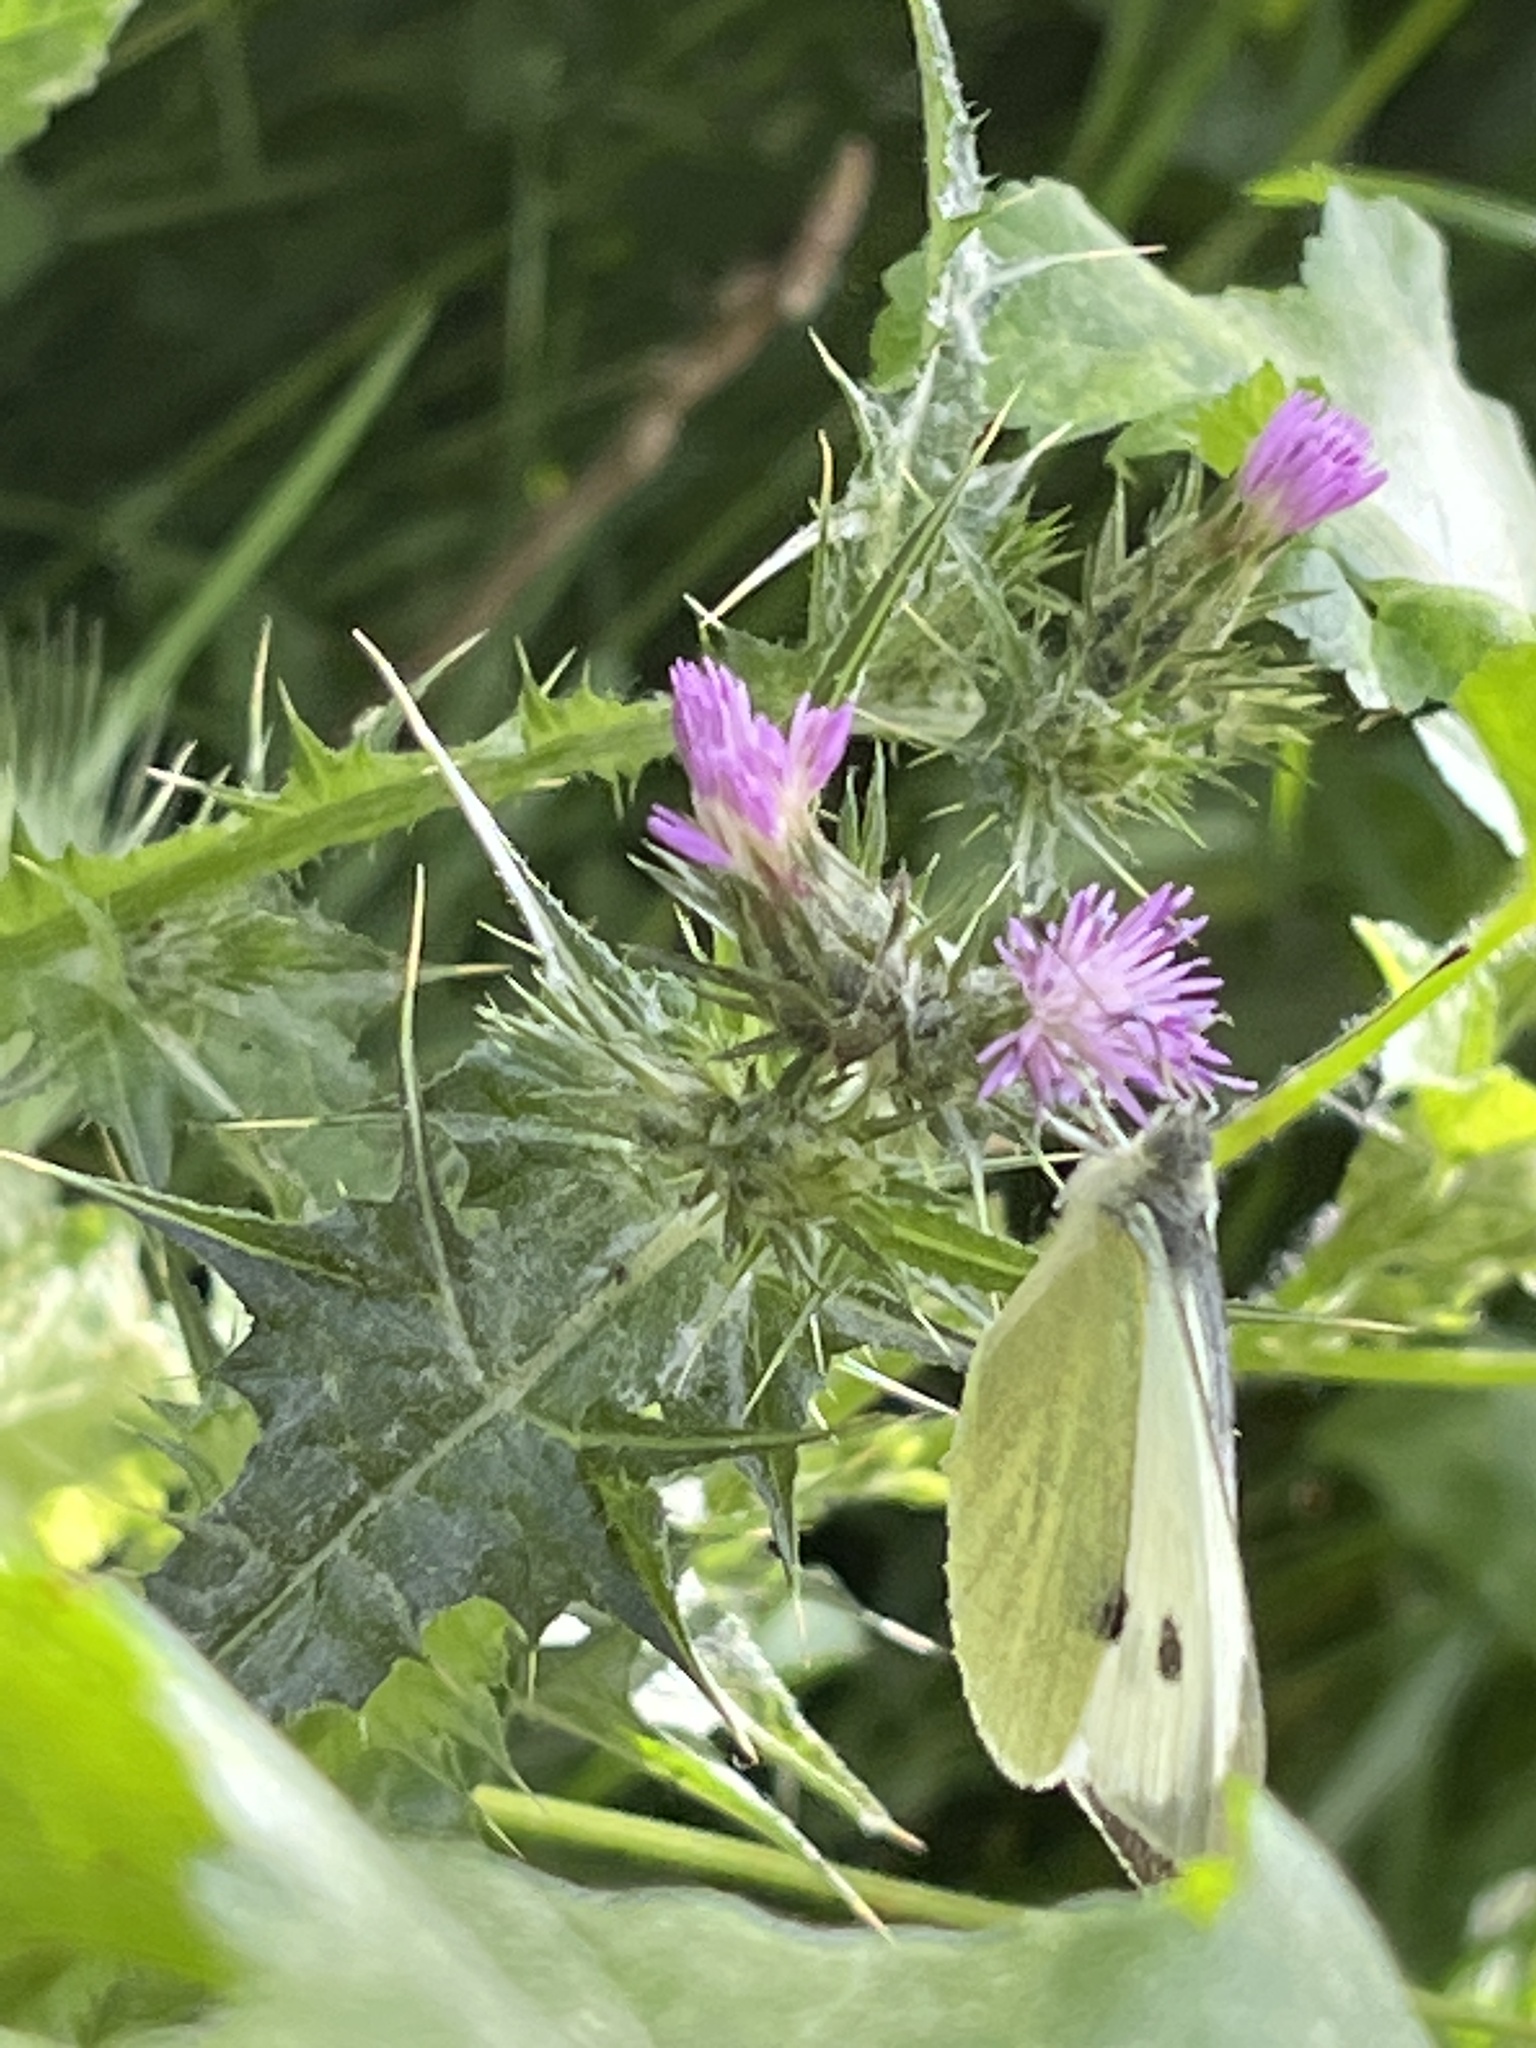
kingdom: Animalia
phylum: Arthropoda
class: Insecta
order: Lepidoptera
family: Pieridae
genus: Pieris
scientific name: Pieris brassicae
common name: Large white
